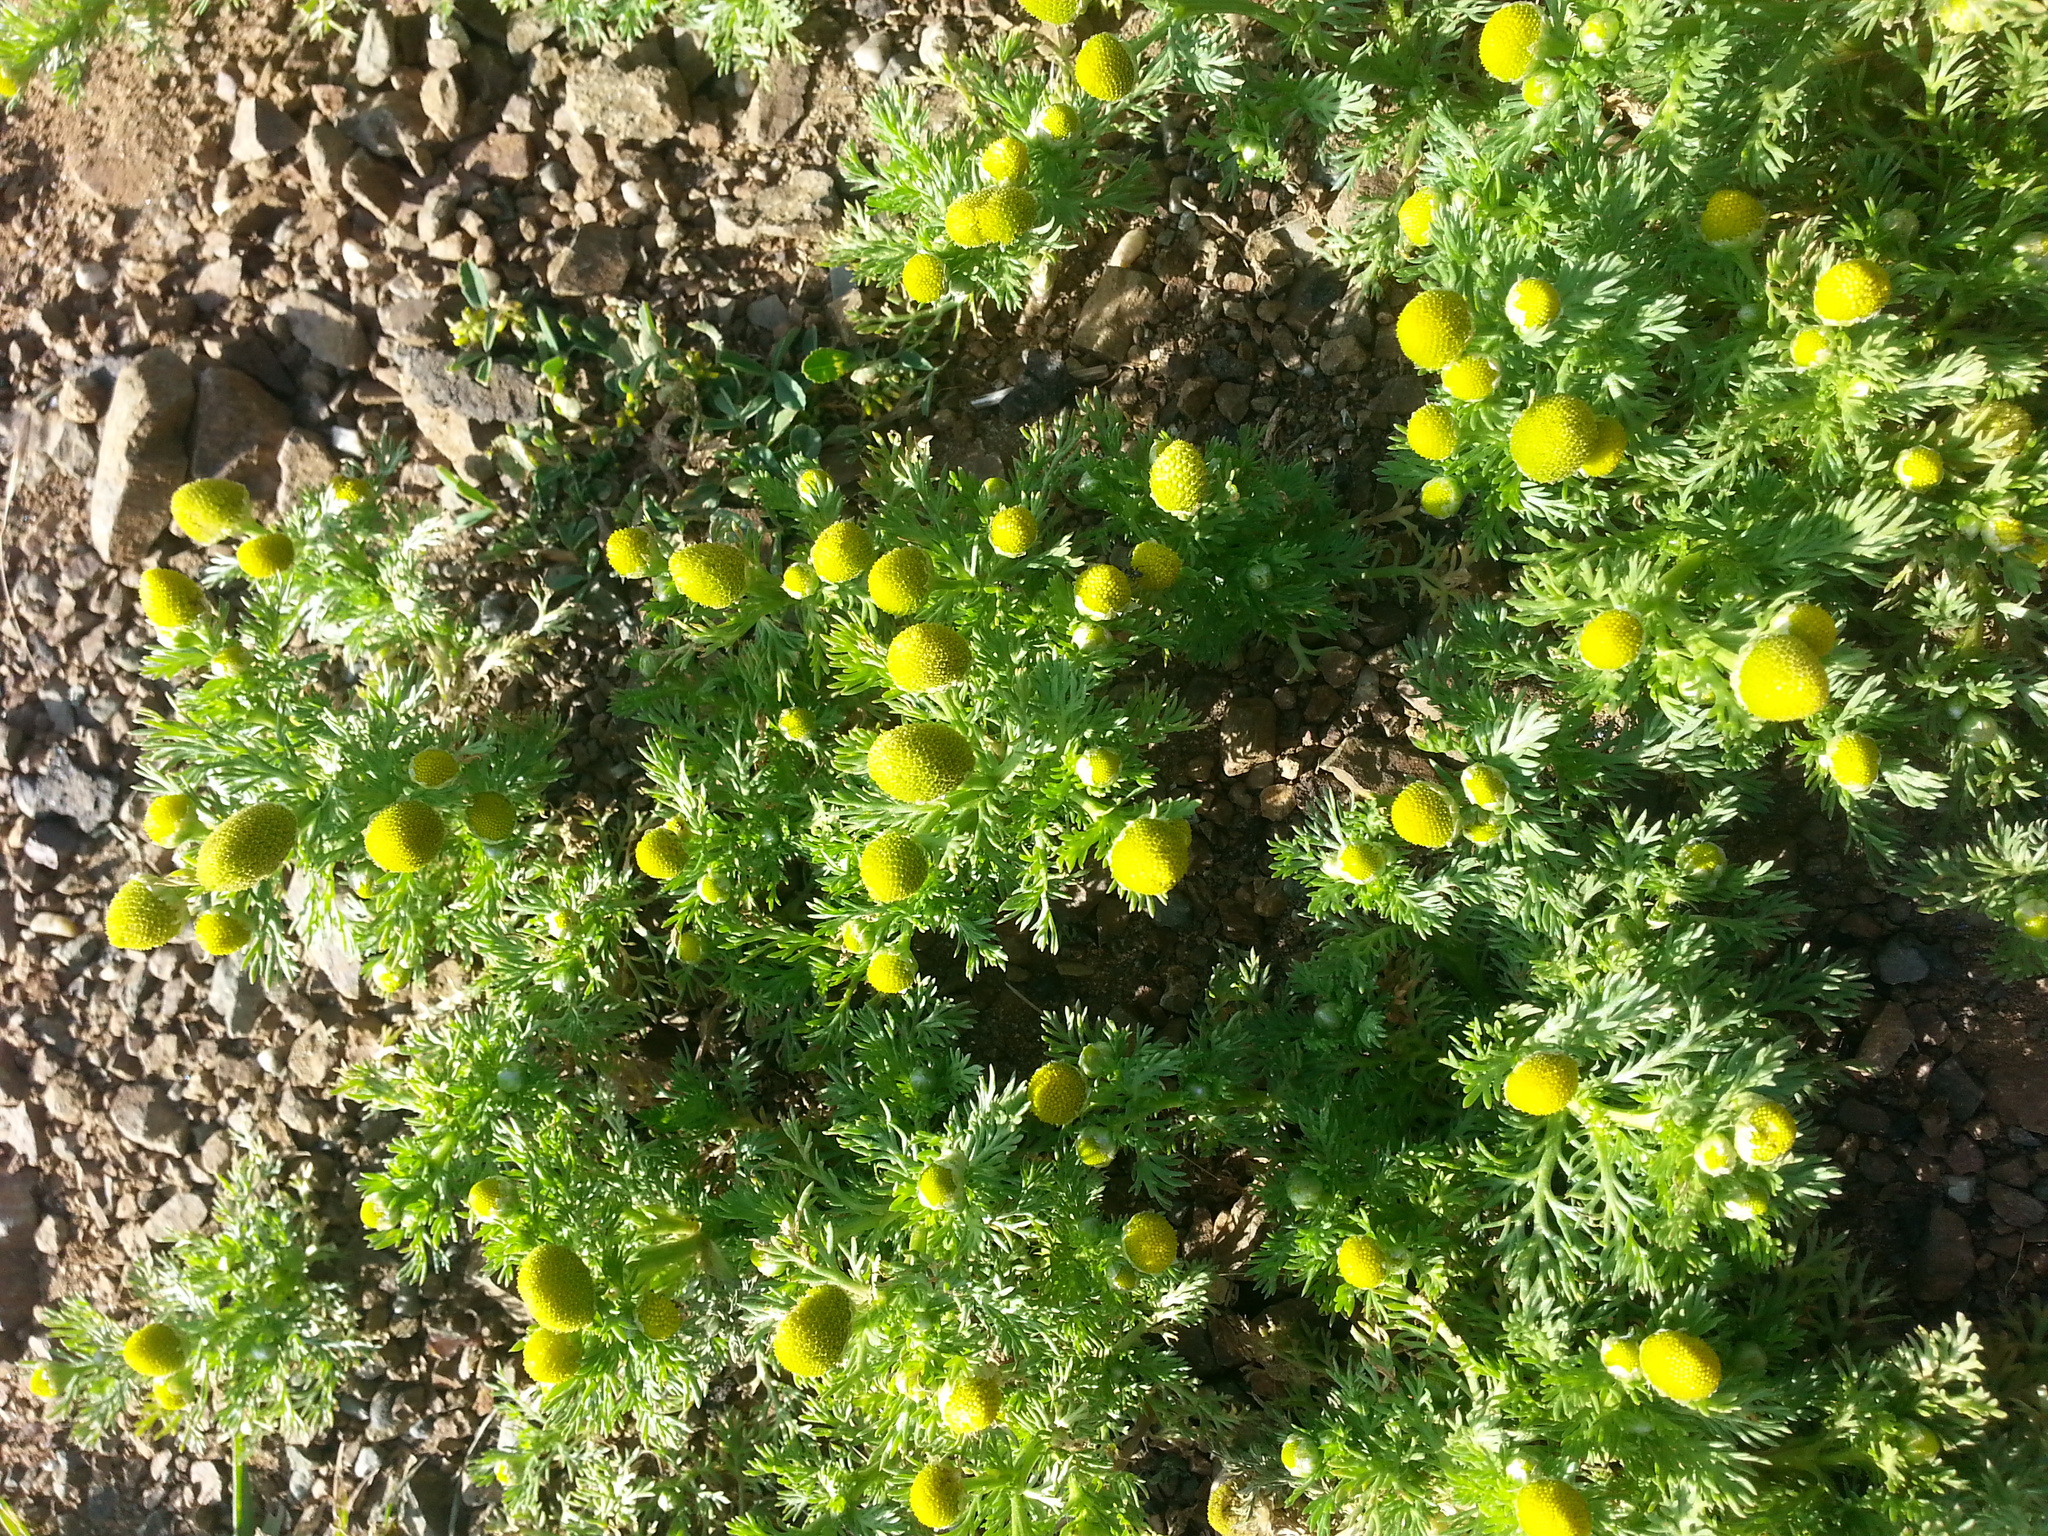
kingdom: Plantae
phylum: Tracheophyta
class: Magnoliopsida
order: Asterales
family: Asteraceae
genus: Matricaria
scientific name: Matricaria discoidea
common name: Disc mayweed
